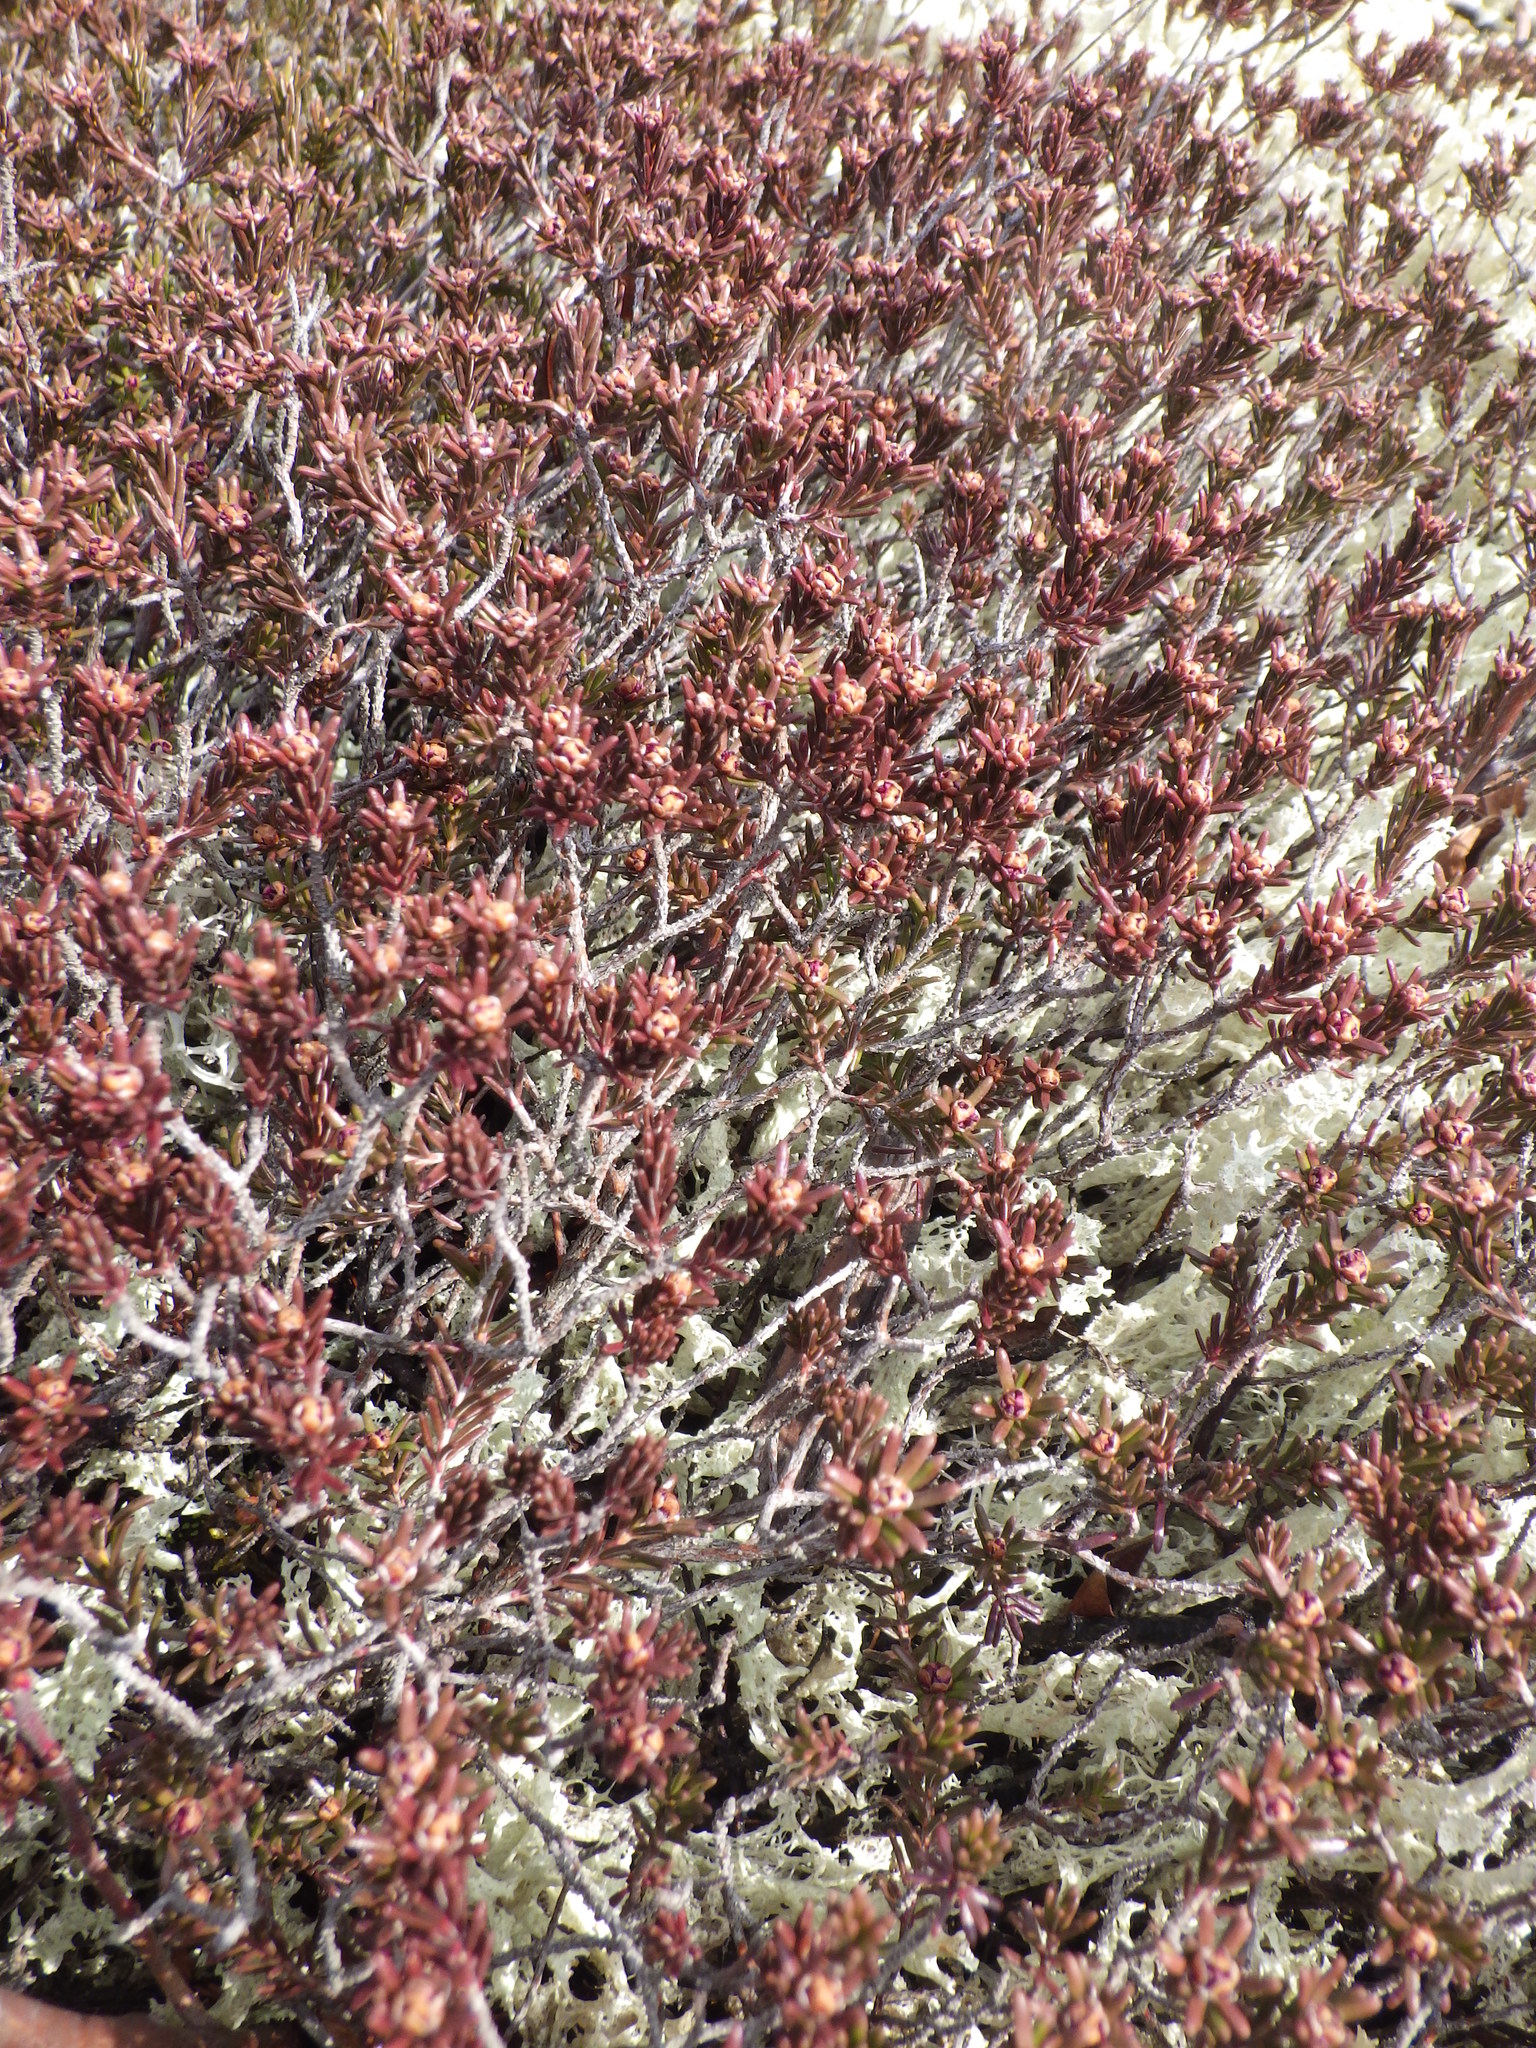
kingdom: Plantae
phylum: Tracheophyta
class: Magnoliopsida
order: Ericales
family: Ericaceae
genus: Corema
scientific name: Corema conradii
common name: Broom-crowberry
